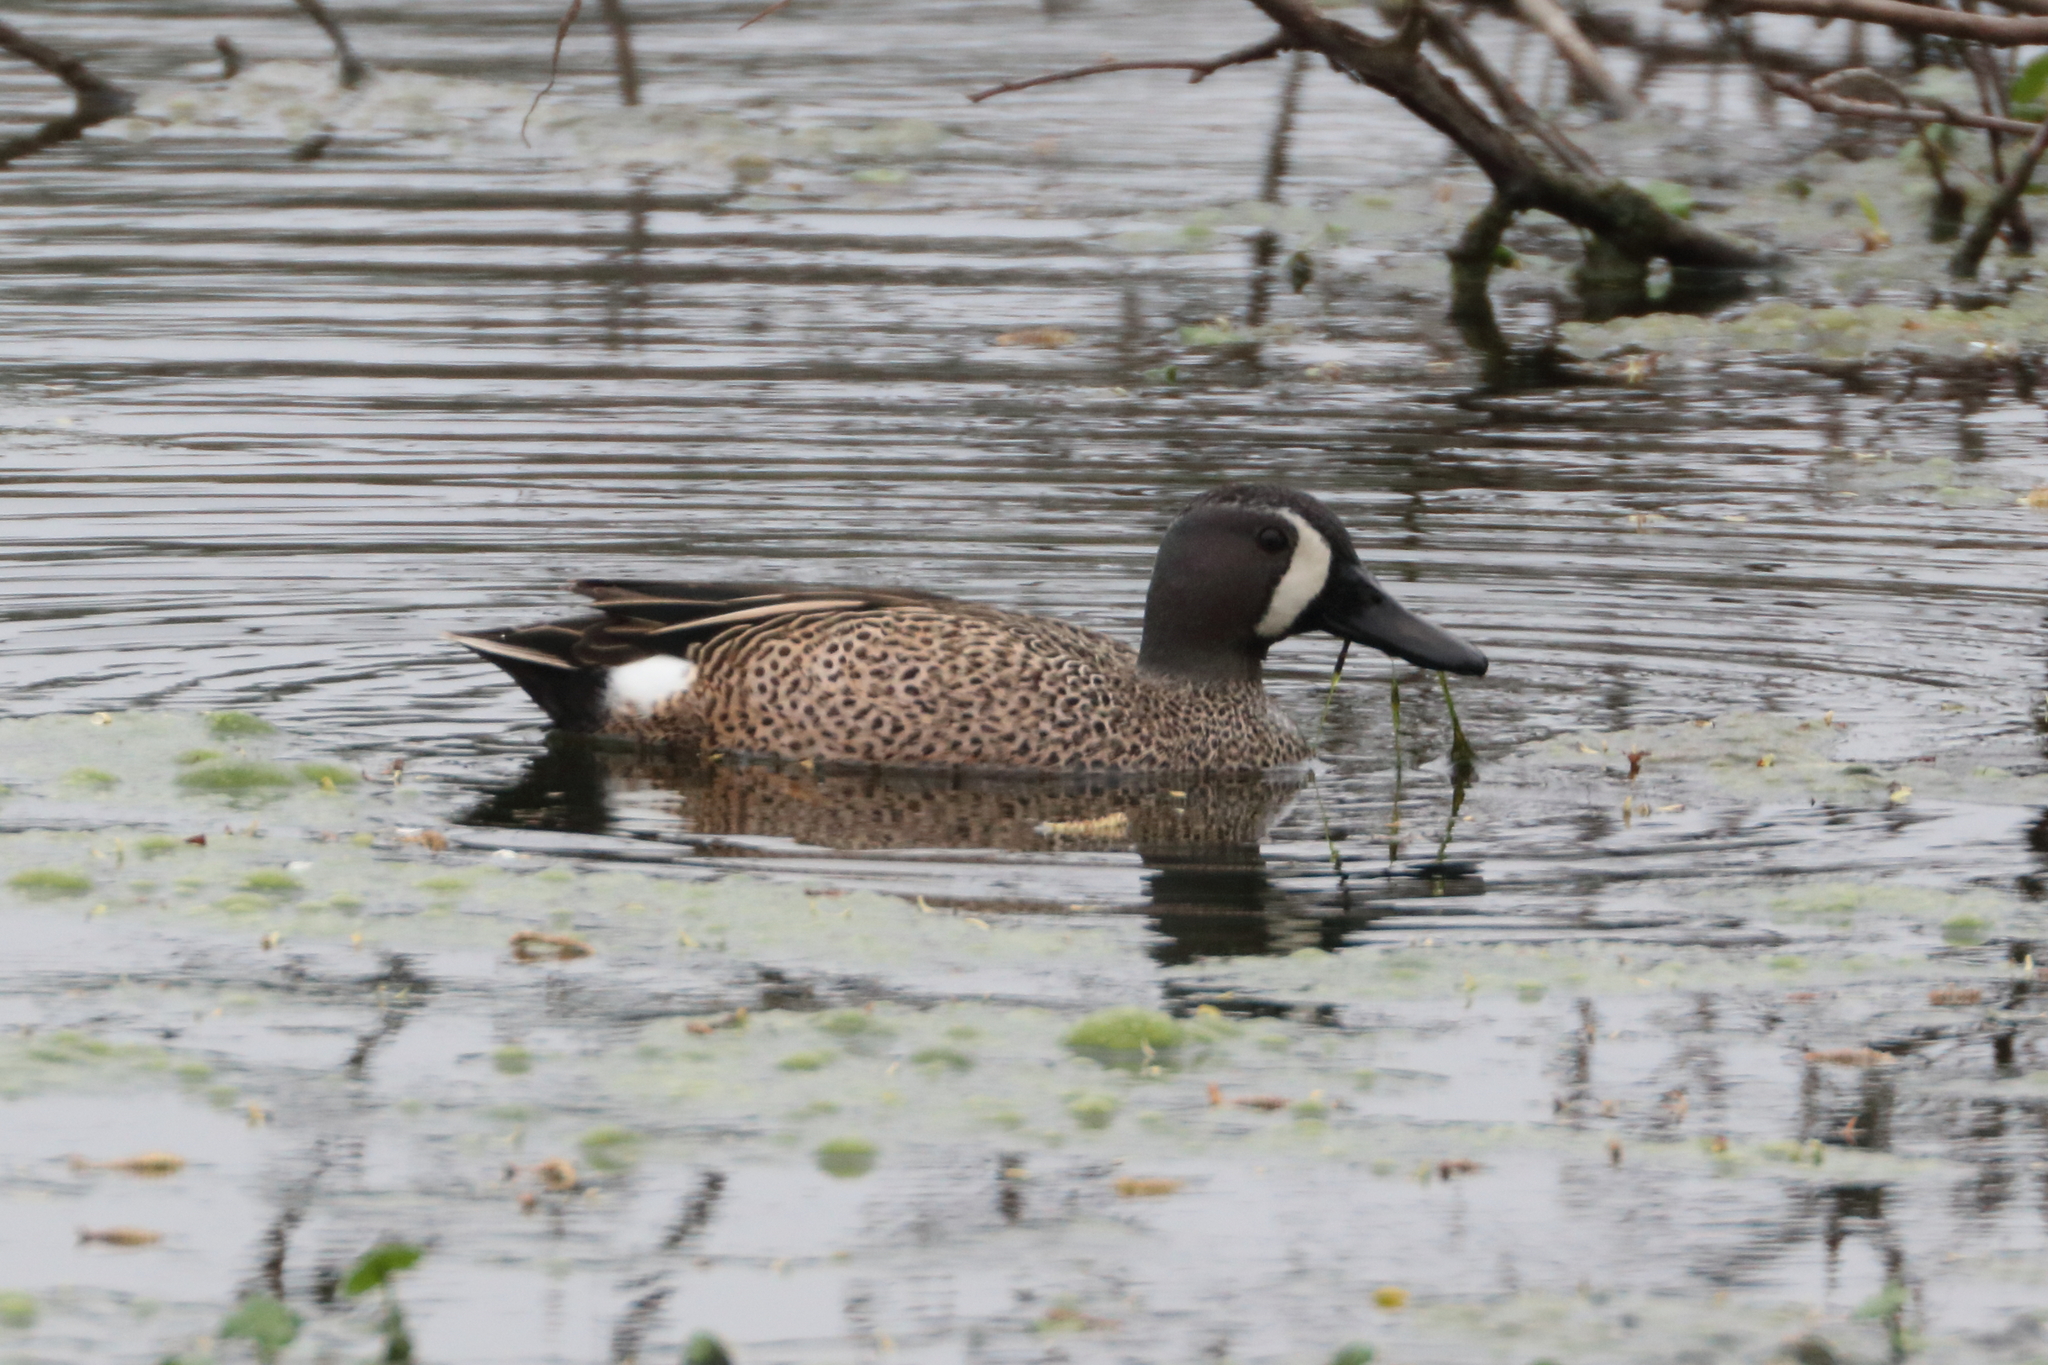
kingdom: Animalia
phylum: Chordata
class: Aves
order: Anseriformes
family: Anatidae
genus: Spatula
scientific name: Spatula discors
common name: Blue-winged teal
